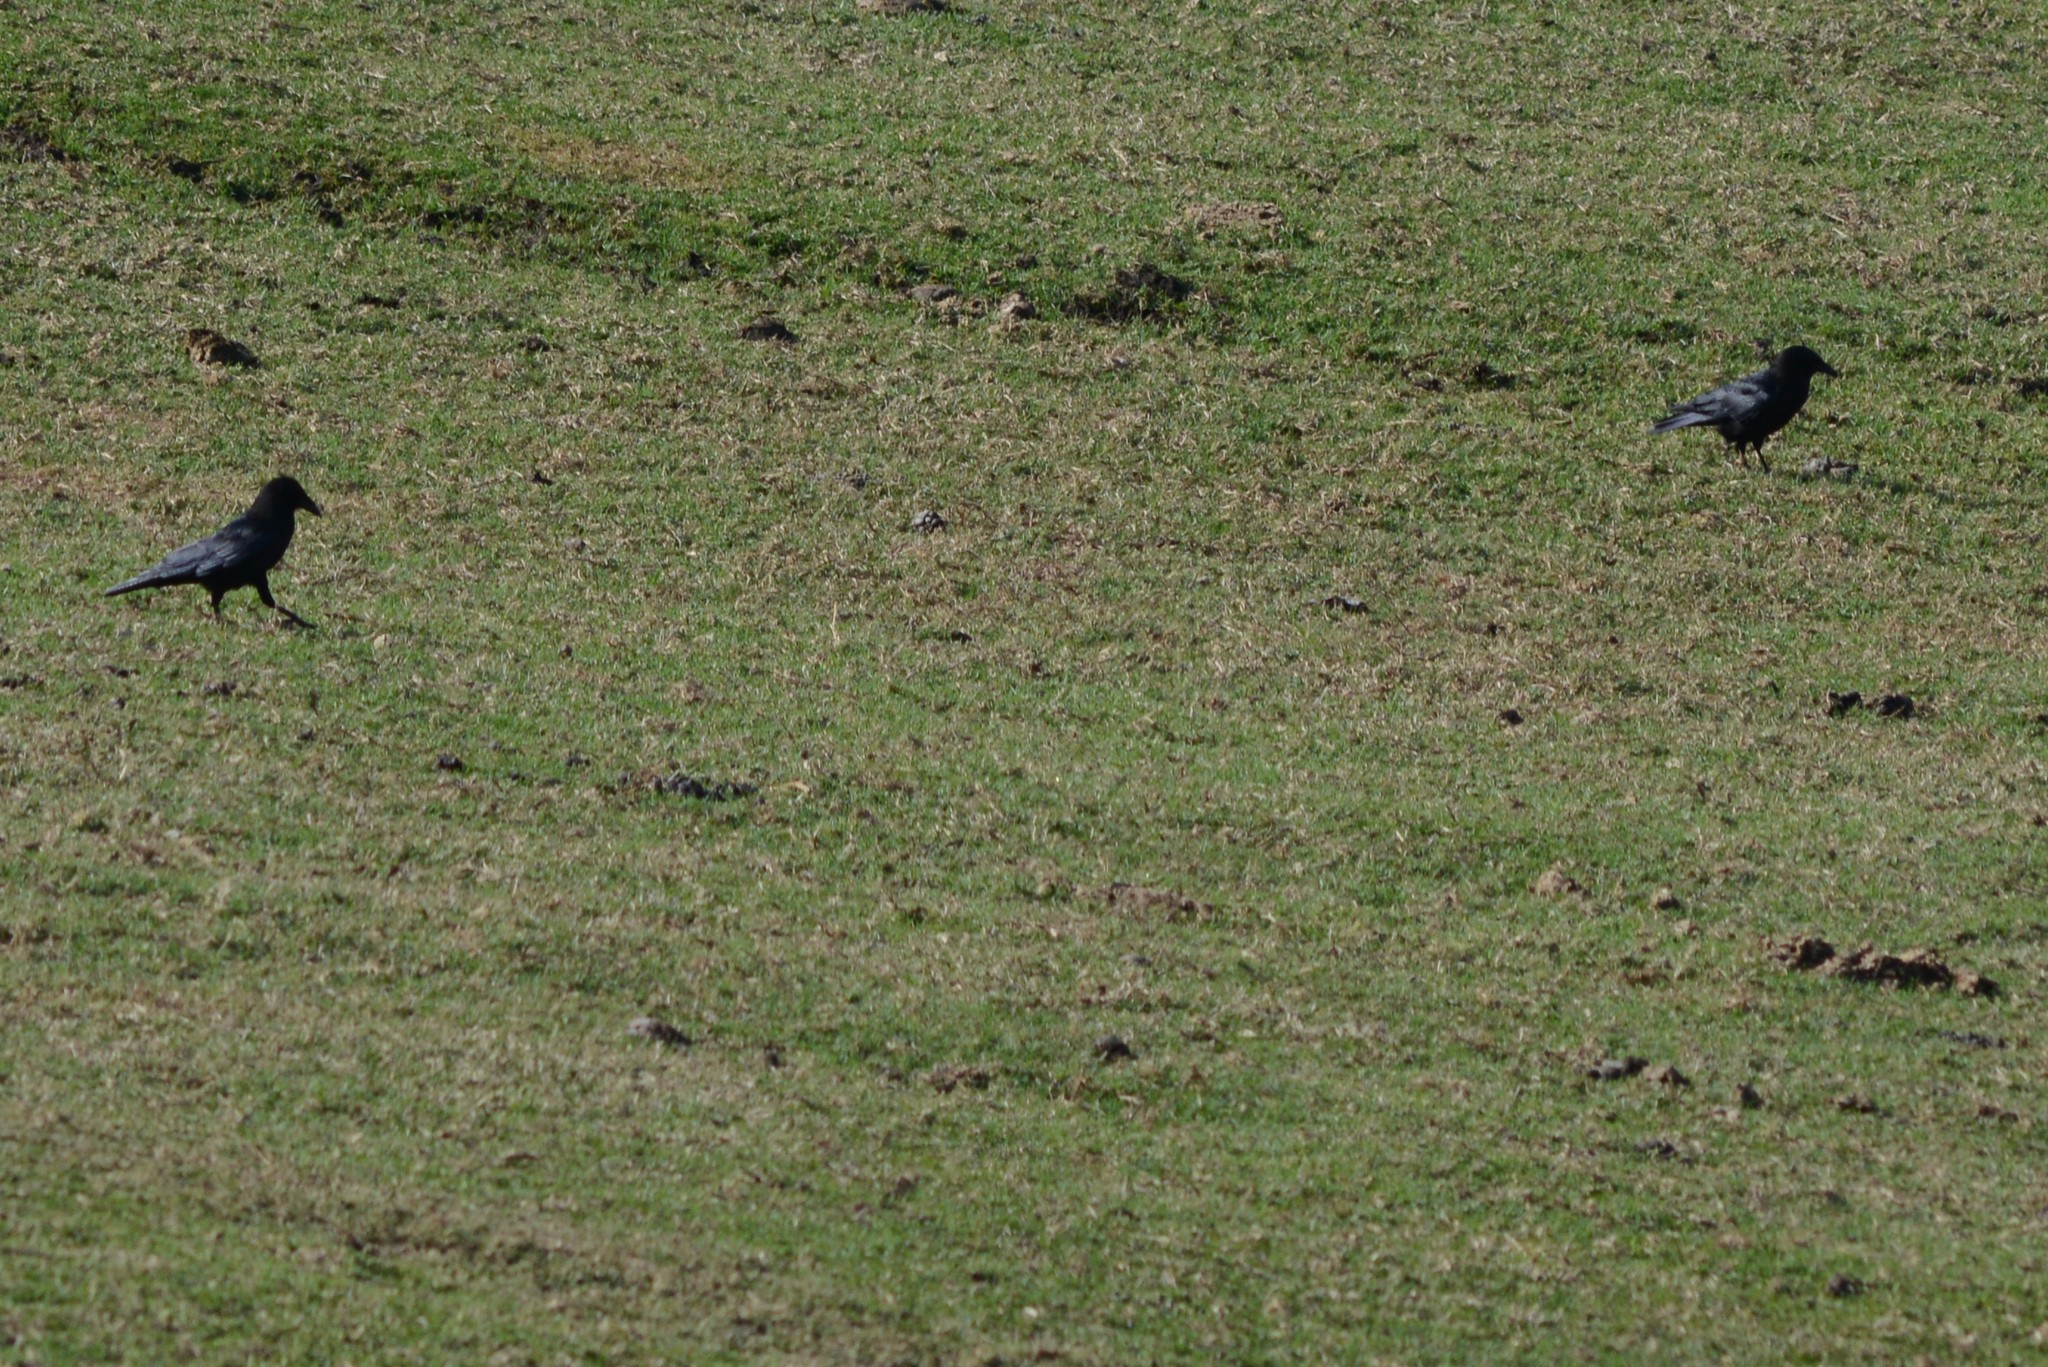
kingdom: Animalia
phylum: Chordata
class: Aves
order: Passeriformes
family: Corvidae
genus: Corvus
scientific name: Corvus brachyrhynchos
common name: American crow
